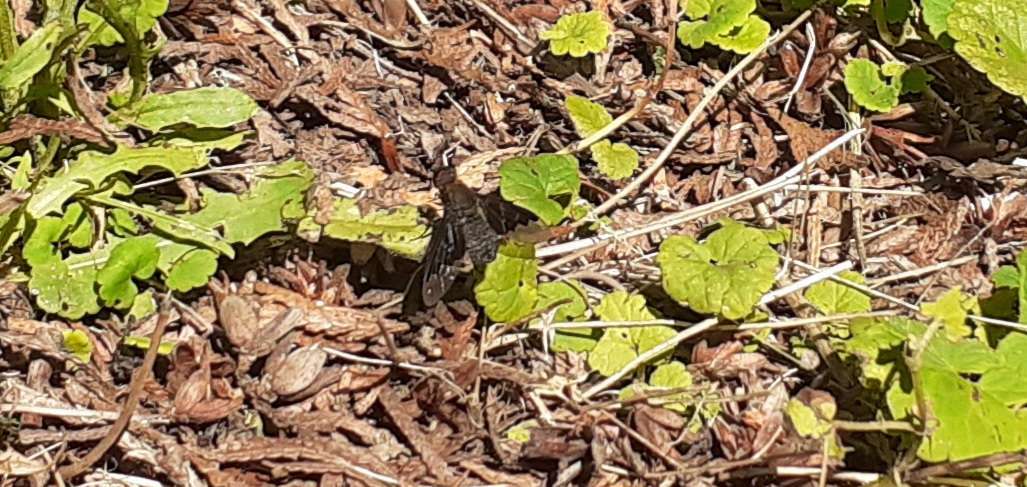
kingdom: Animalia
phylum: Arthropoda
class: Insecta
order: Diptera
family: Bombyliidae
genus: Hemipenthes
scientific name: Hemipenthes morio
